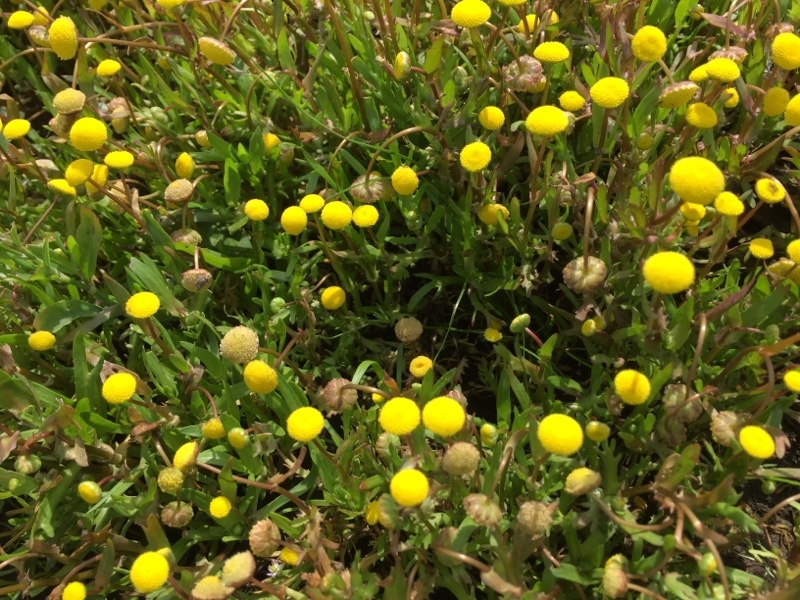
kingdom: Plantae
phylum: Tracheophyta
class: Magnoliopsida
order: Asterales
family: Asteraceae
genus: Cotula
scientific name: Cotula coronopifolia
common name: Buttonweed
